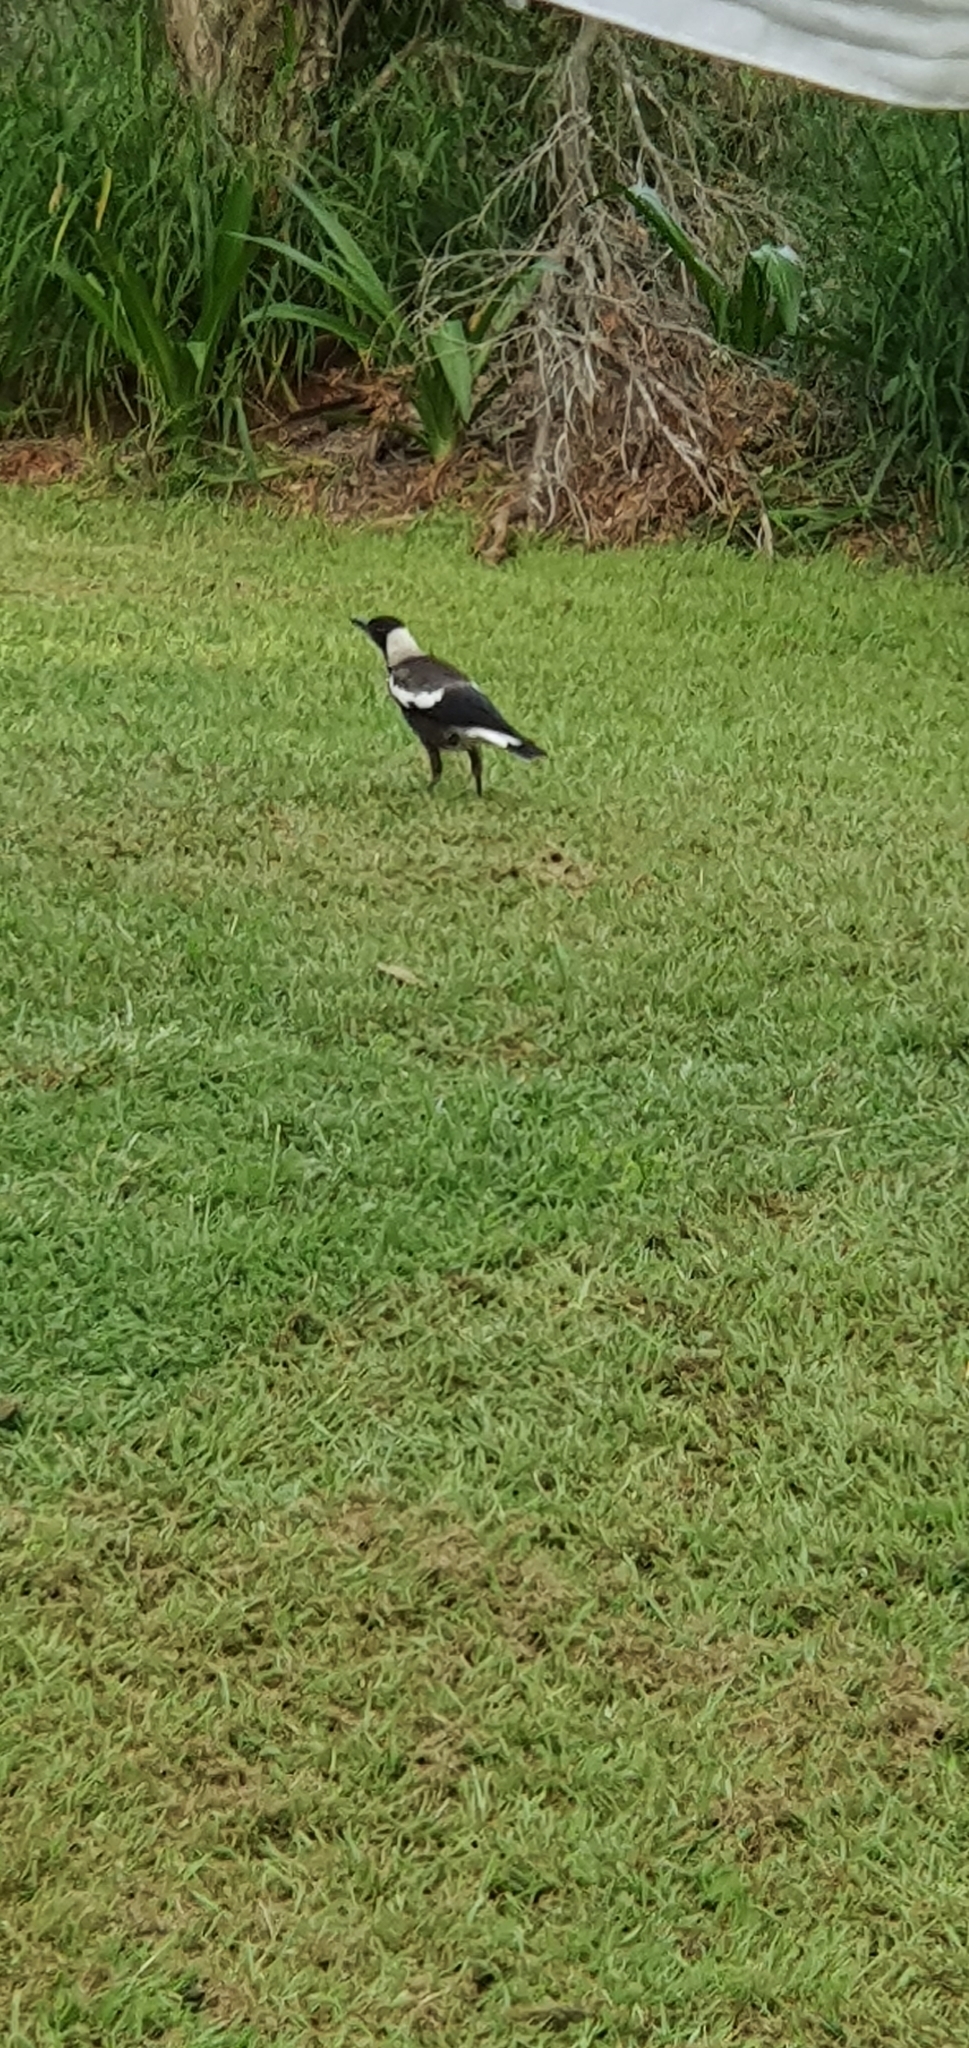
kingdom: Animalia
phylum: Chordata
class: Aves
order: Passeriformes
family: Cracticidae
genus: Gymnorhina
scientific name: Gymnorhina tibicen
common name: Australian magpie
